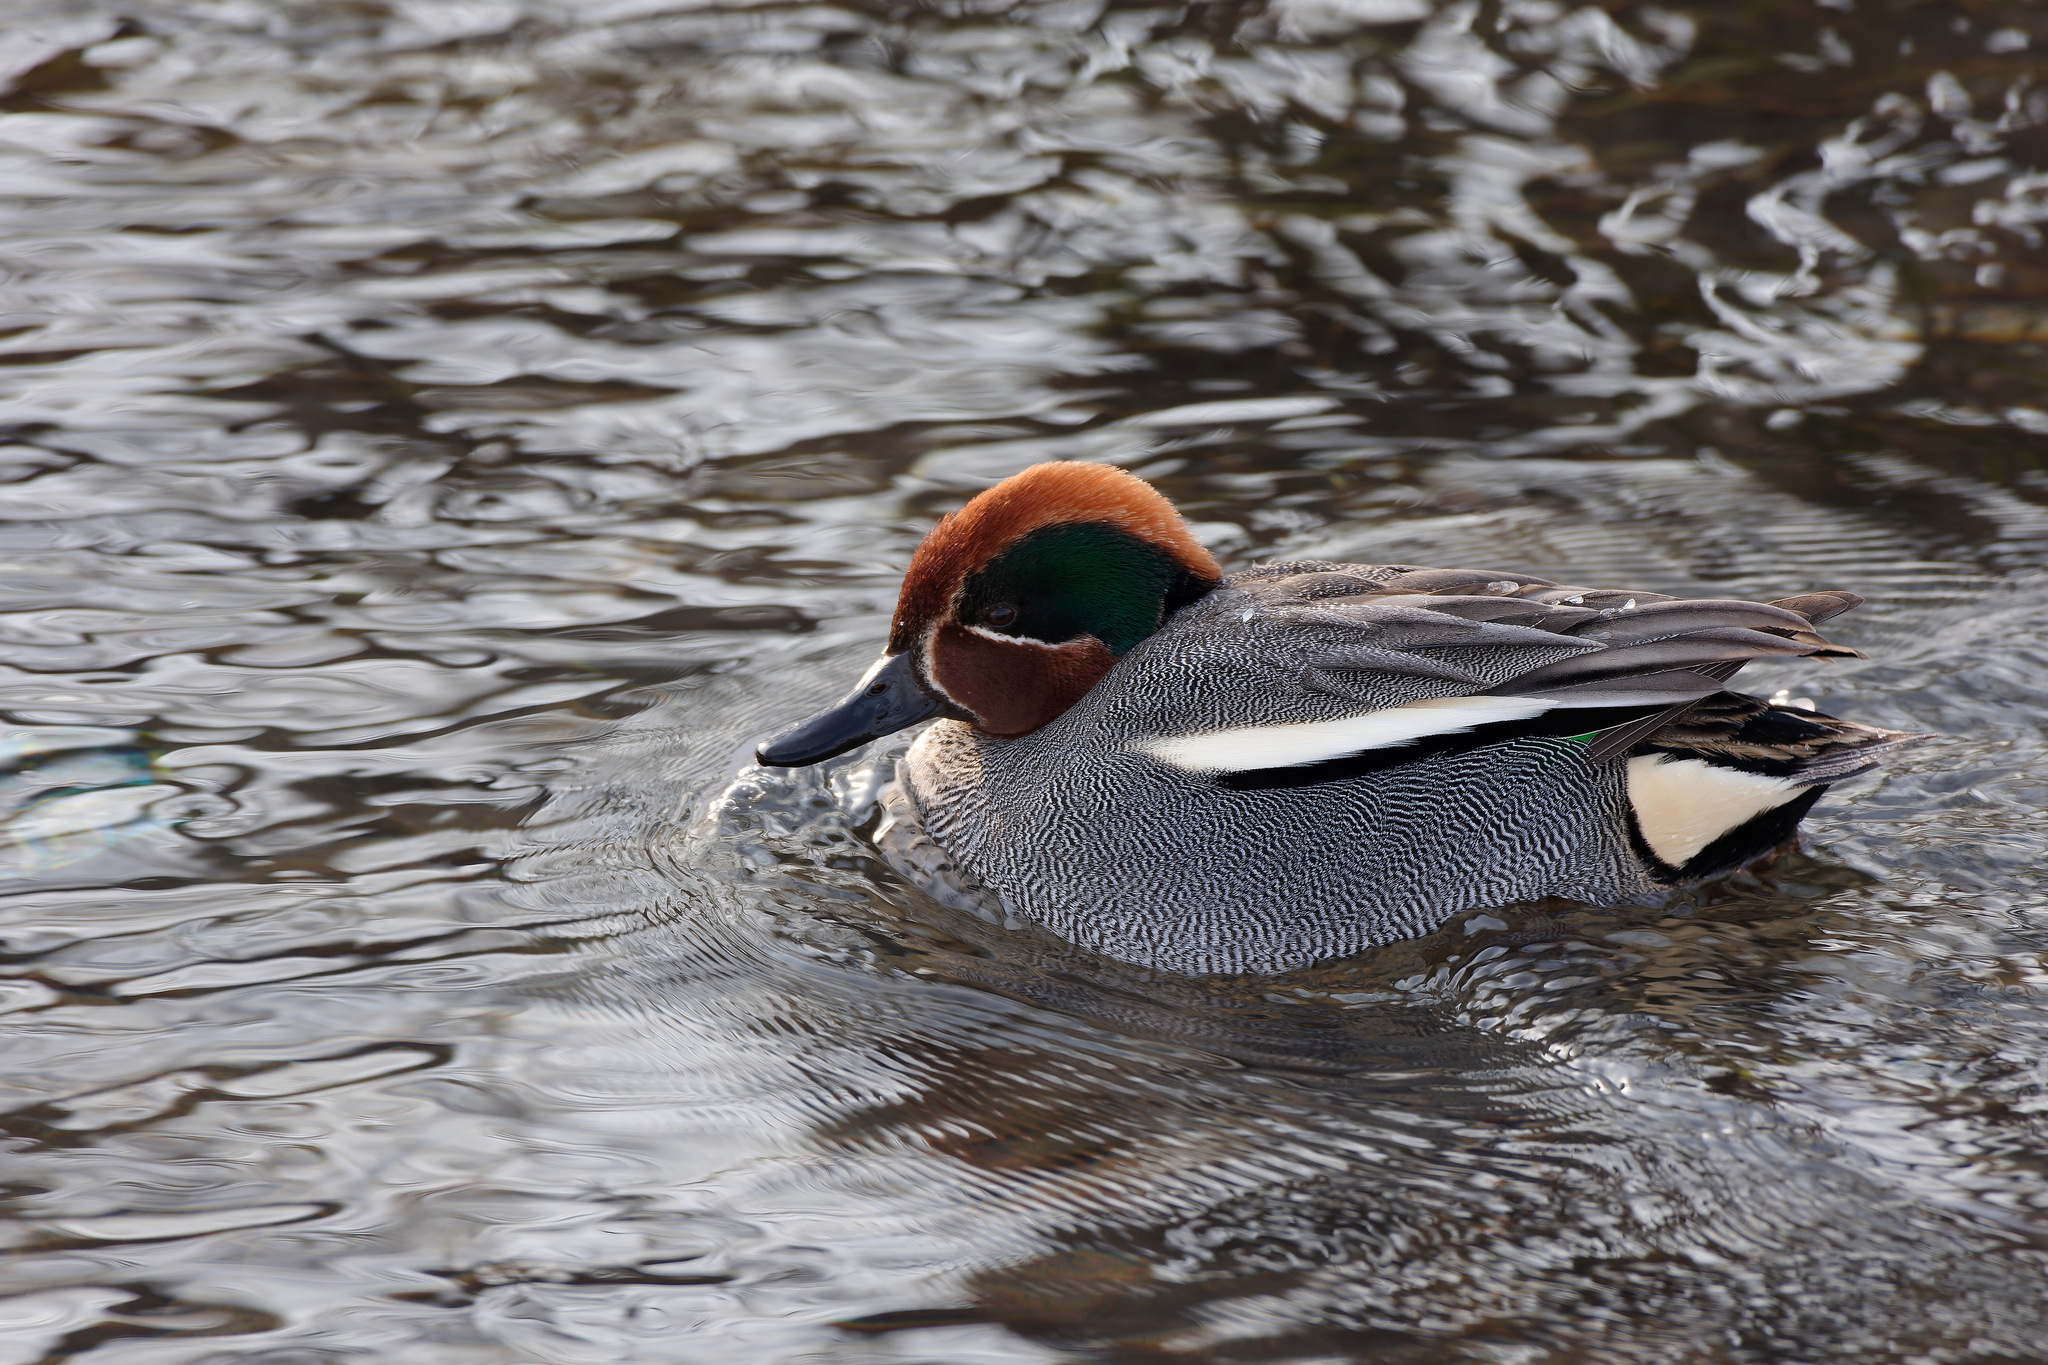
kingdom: Animalia
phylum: Chordata
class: Aves
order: Anseriformes
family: Anatidae
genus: Anas
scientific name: Anas crecca
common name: Eurasian teal
